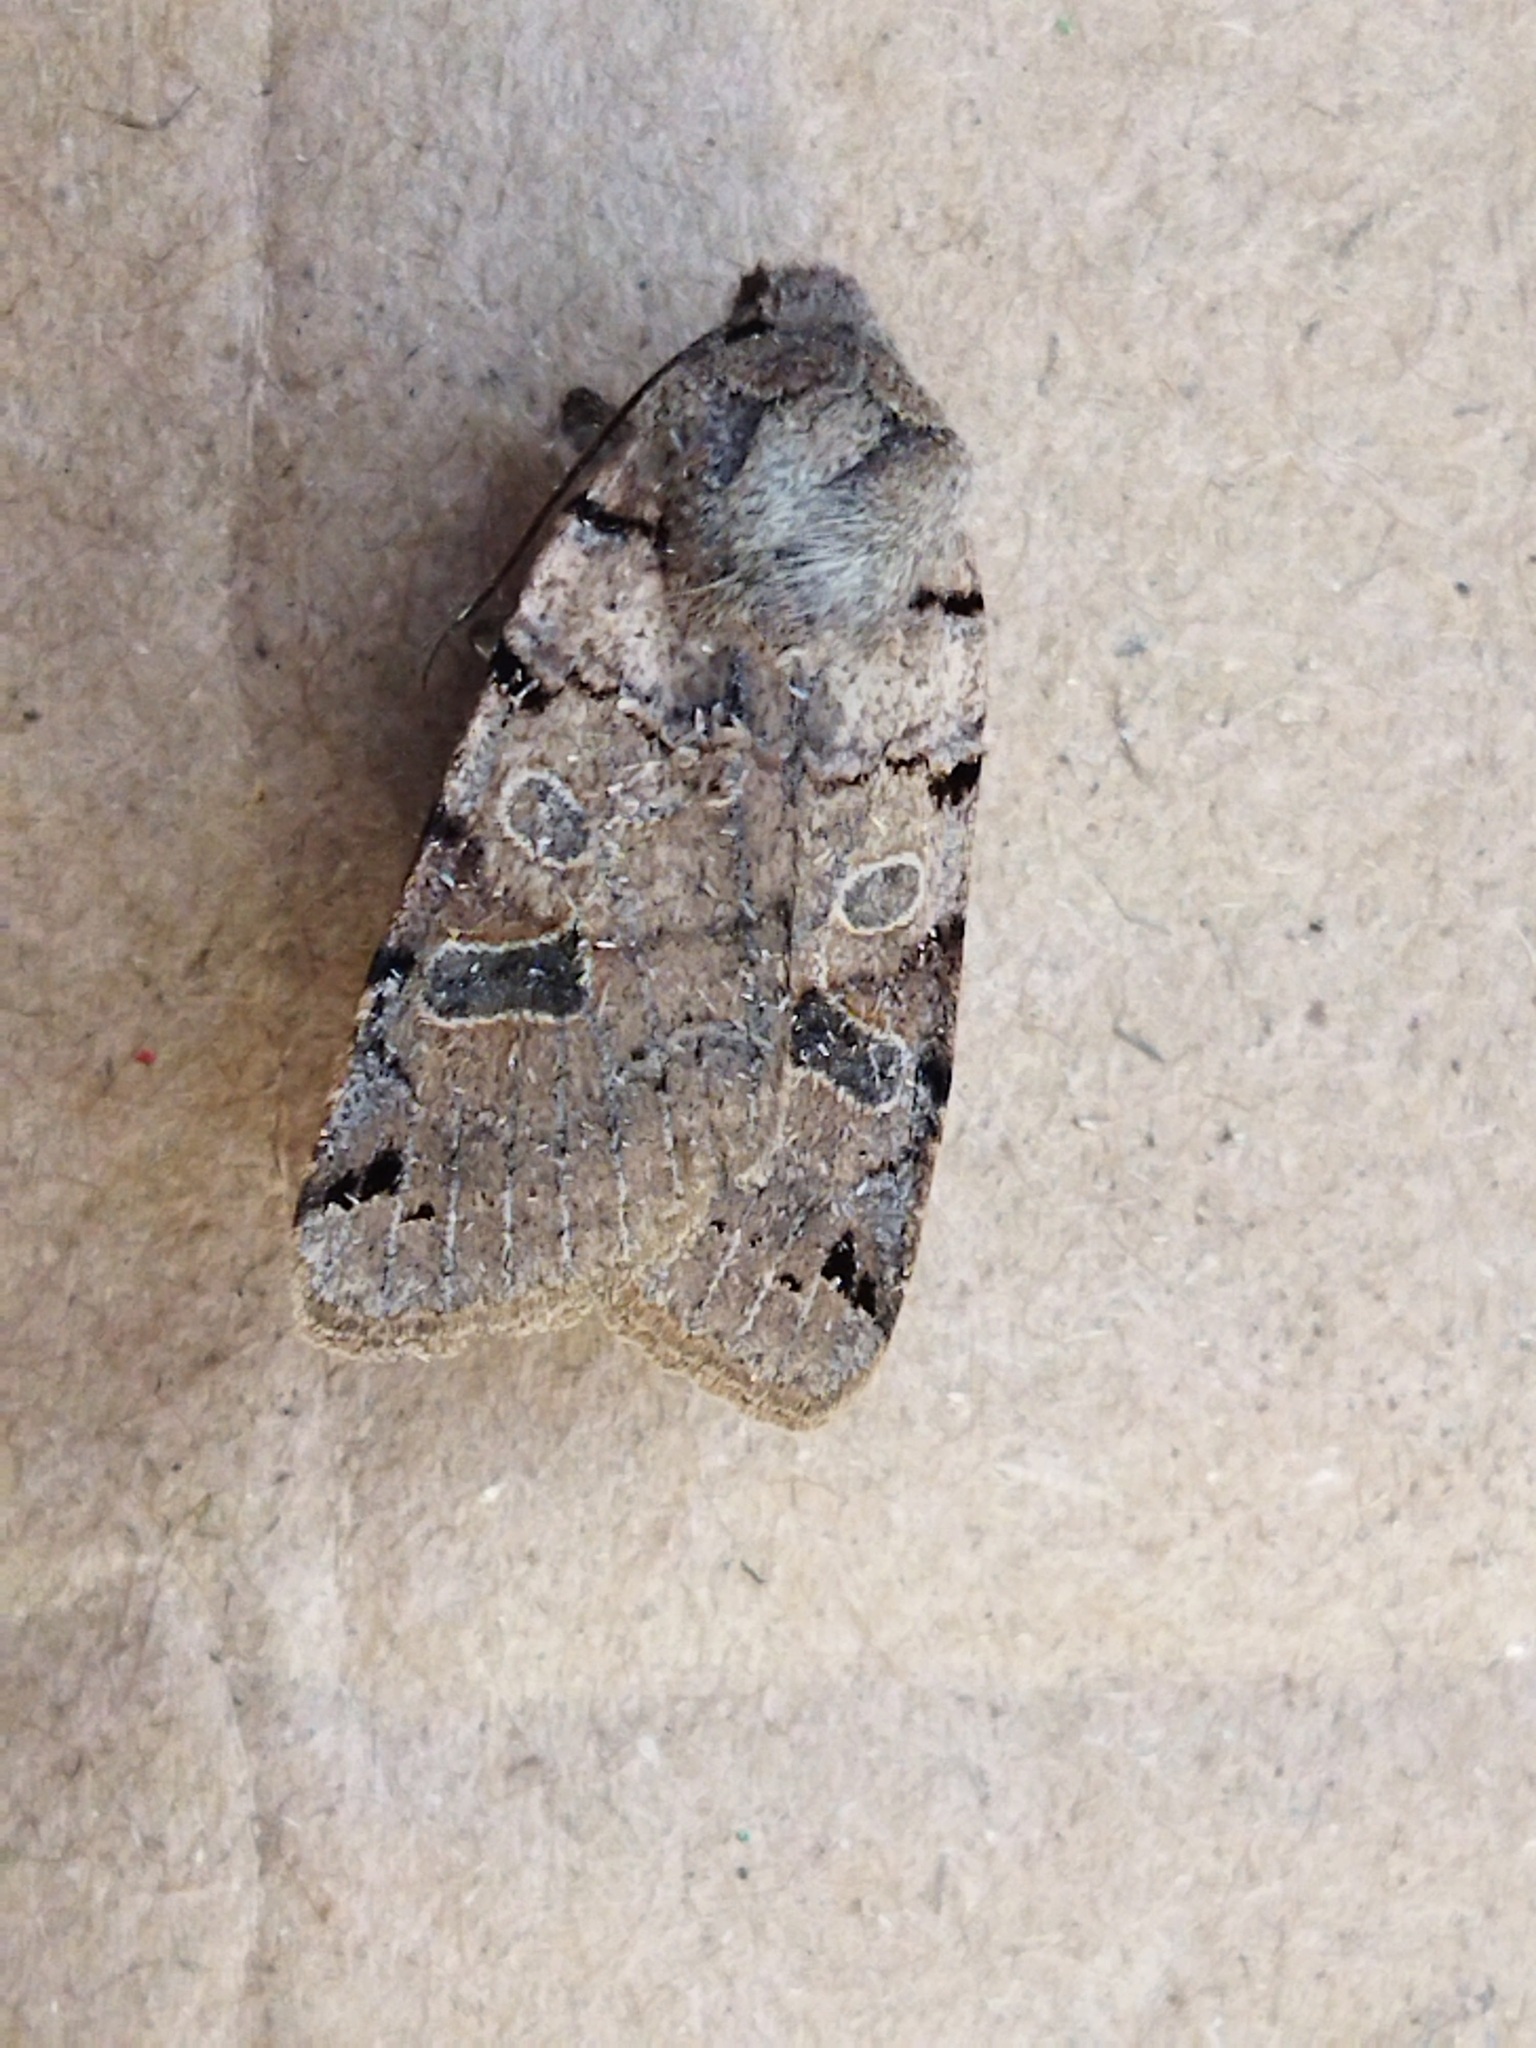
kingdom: Animalia
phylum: Arthropoda
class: Insecta
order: Lepidoptera
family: Noctuidae
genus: Agrochola
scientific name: Agrochola litura
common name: Brown-spot pinion
